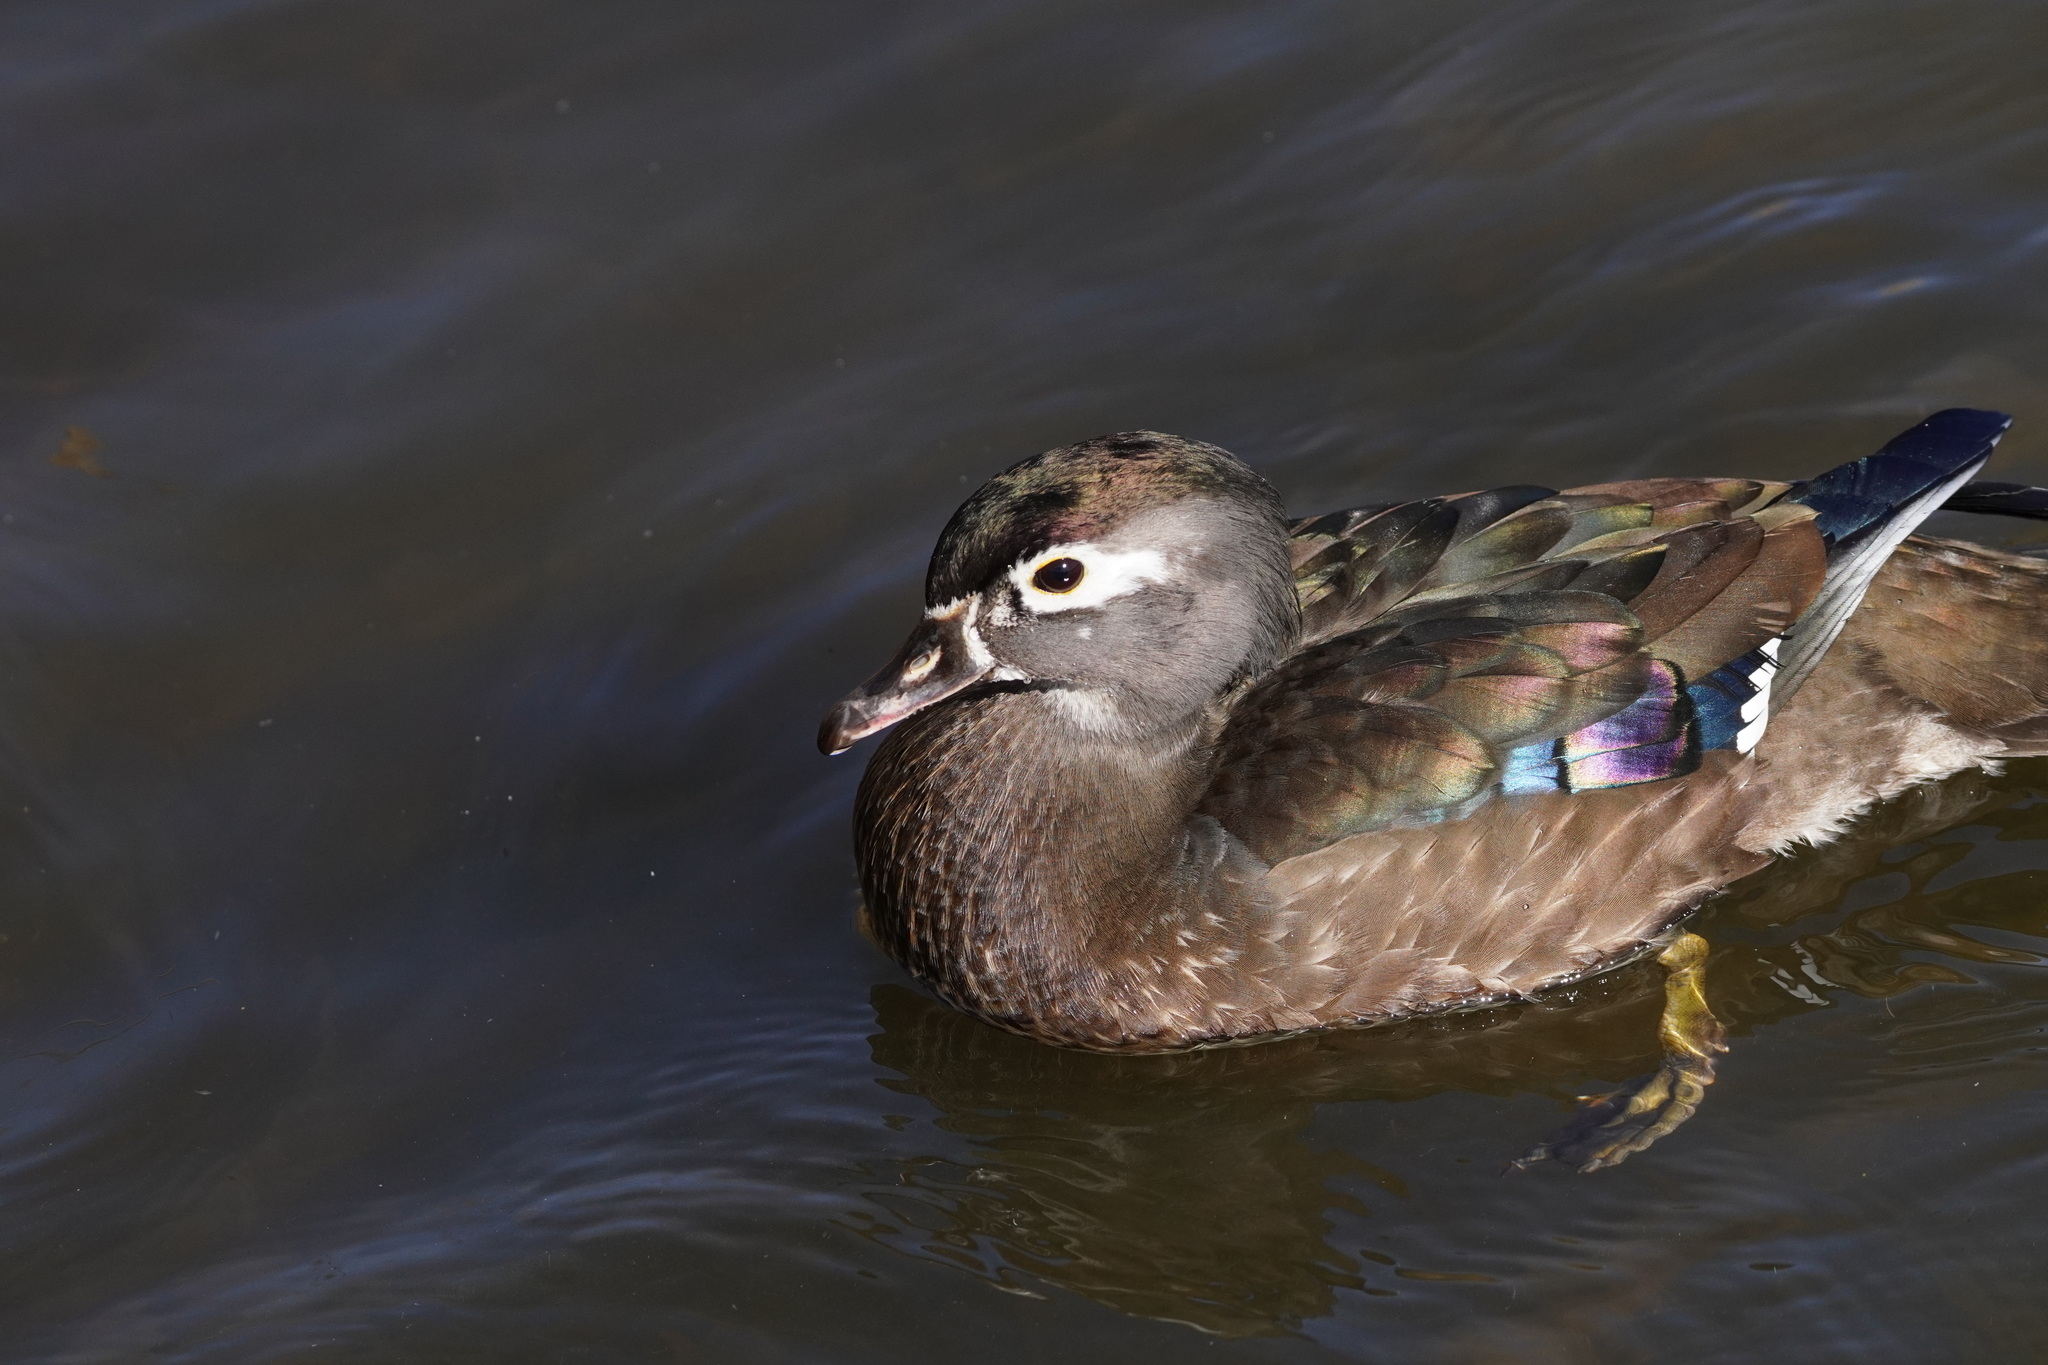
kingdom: Animalia
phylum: Chordata
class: Aves
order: Anseriformes
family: Anatidae
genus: Aix
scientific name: Aix sponsa
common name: Wood duck
